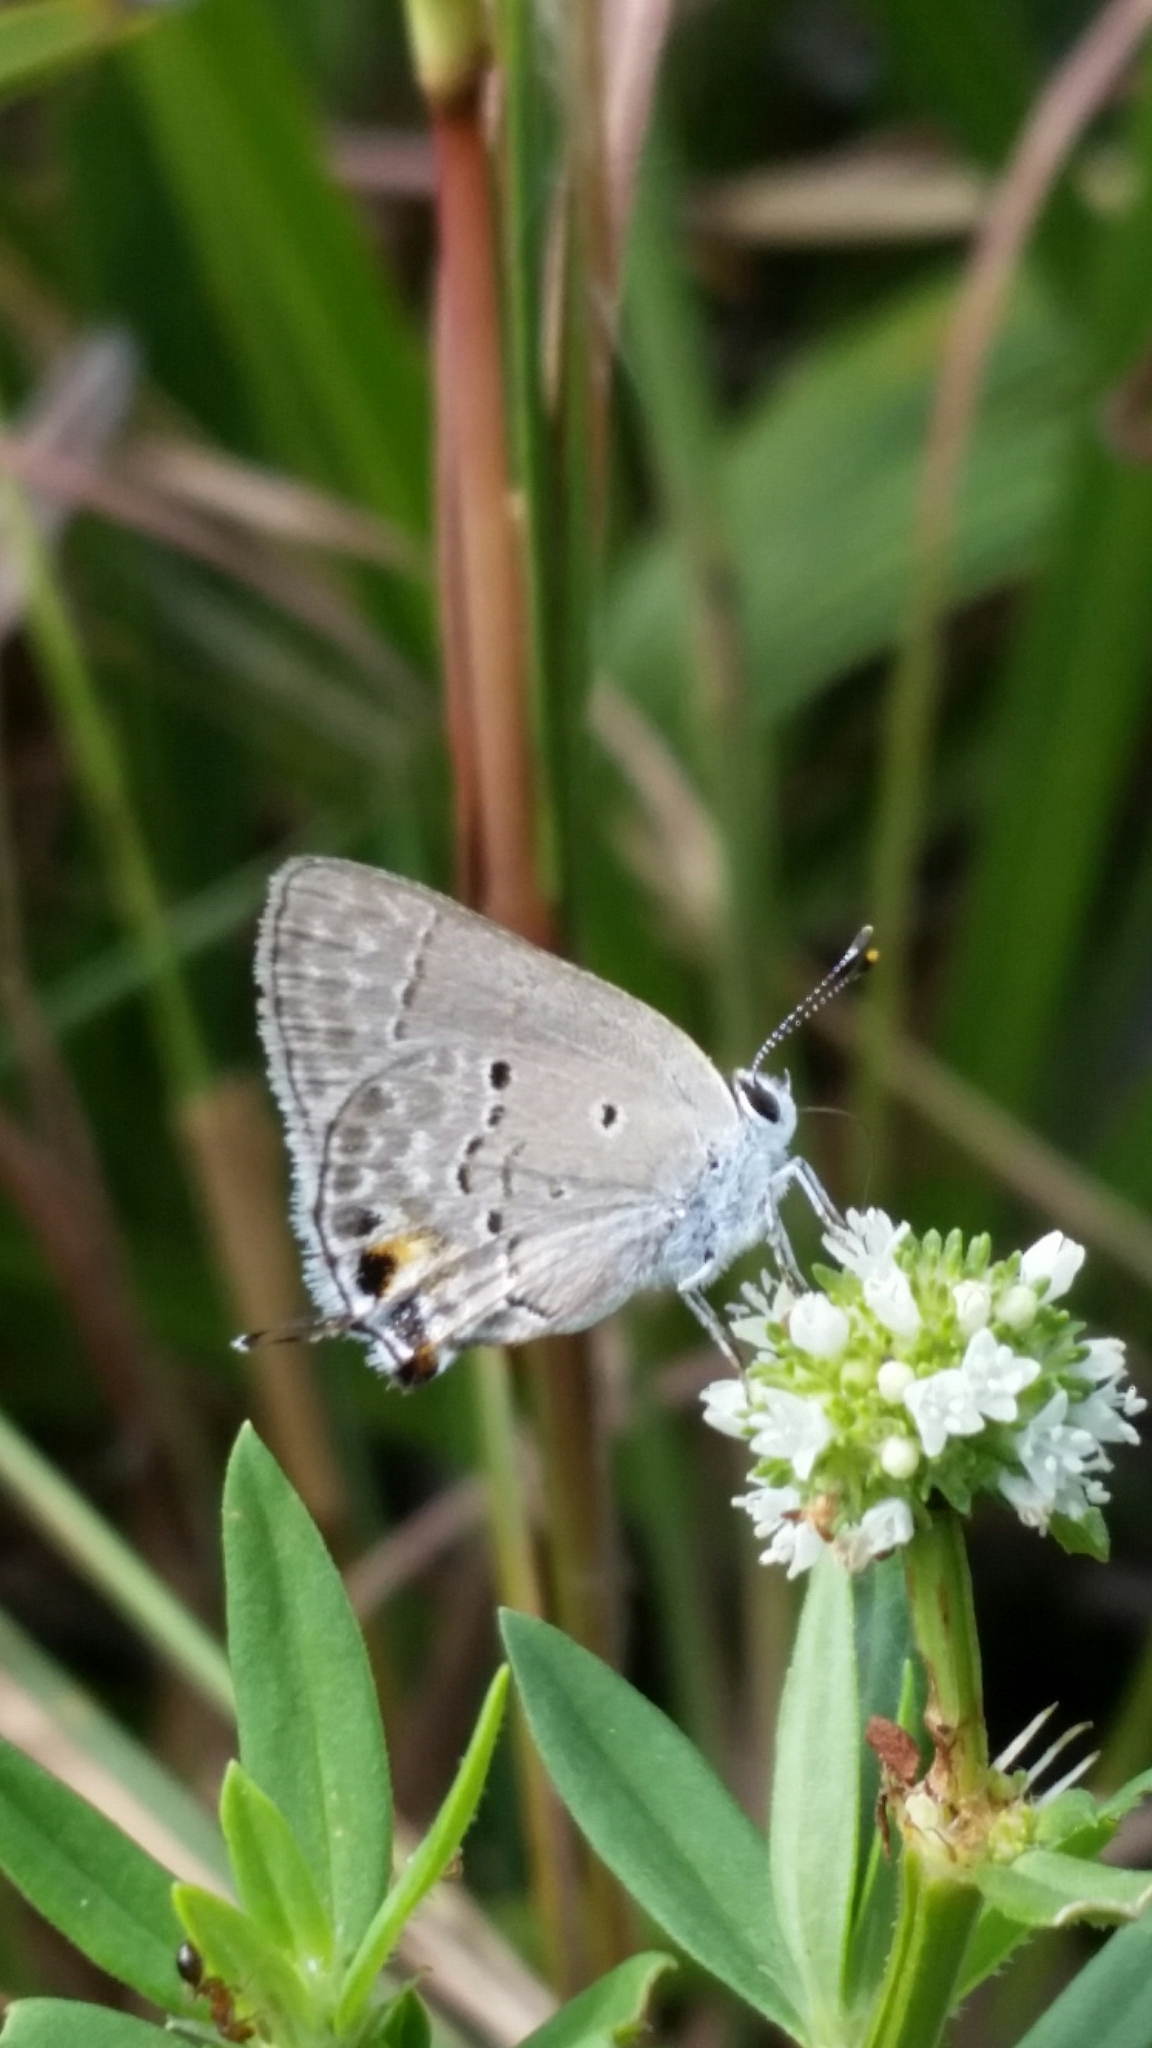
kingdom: Animalia
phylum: Arthropoda
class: Insecta
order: Lepidoptera
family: Lycaenidae
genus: Callicista
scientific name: Callicista columella
